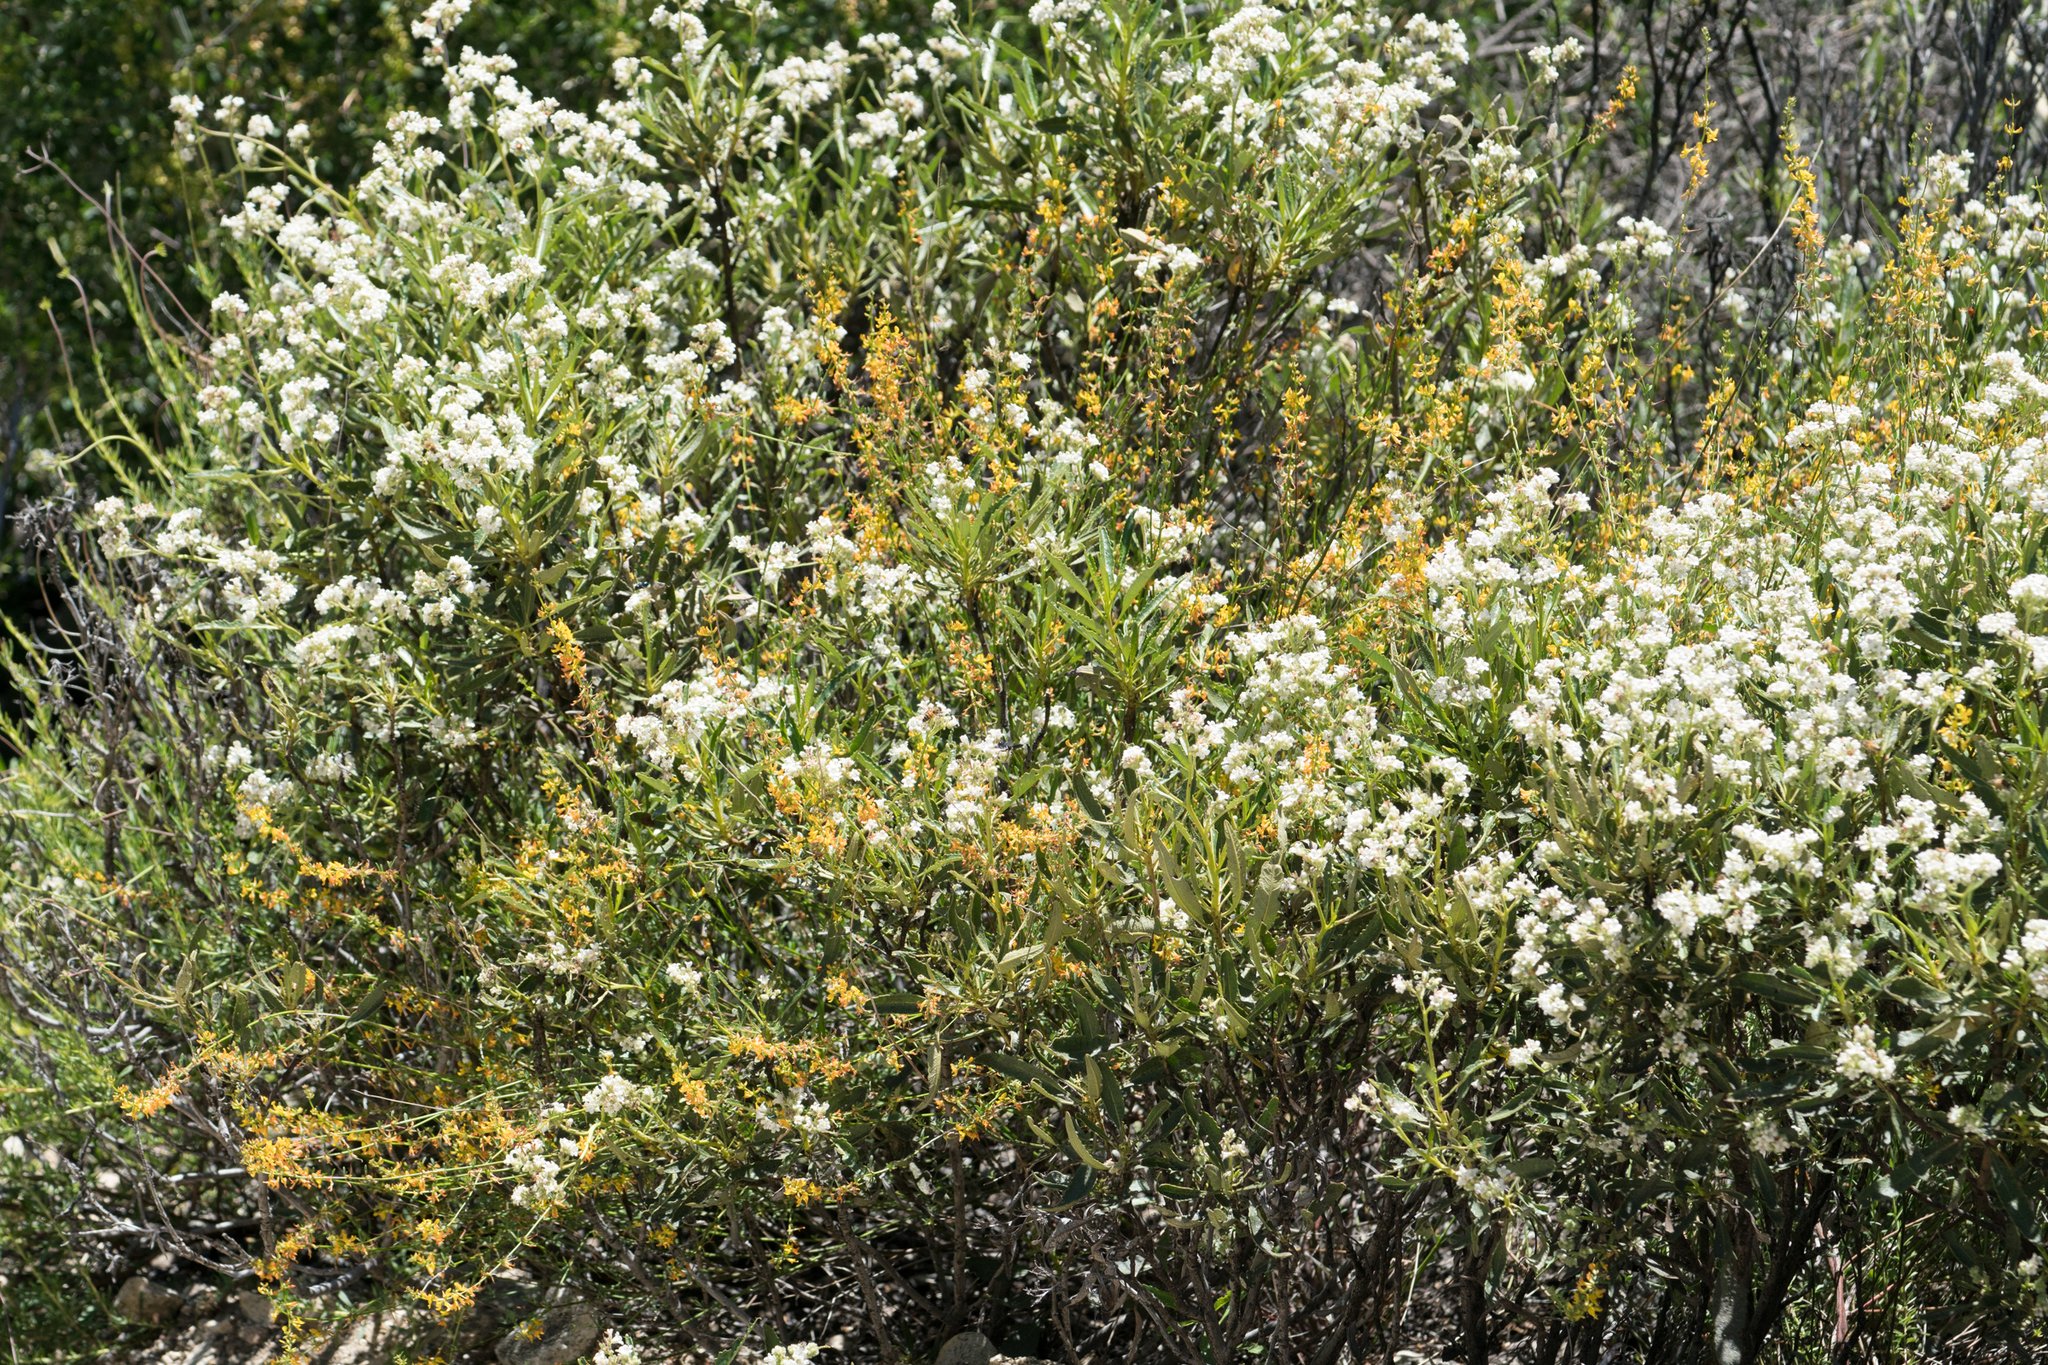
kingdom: Plantae
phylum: Tracheophyta
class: Magnoliopsida
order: Fabales
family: Fabaceae
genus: Acmispon
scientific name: Acmispon glaber
